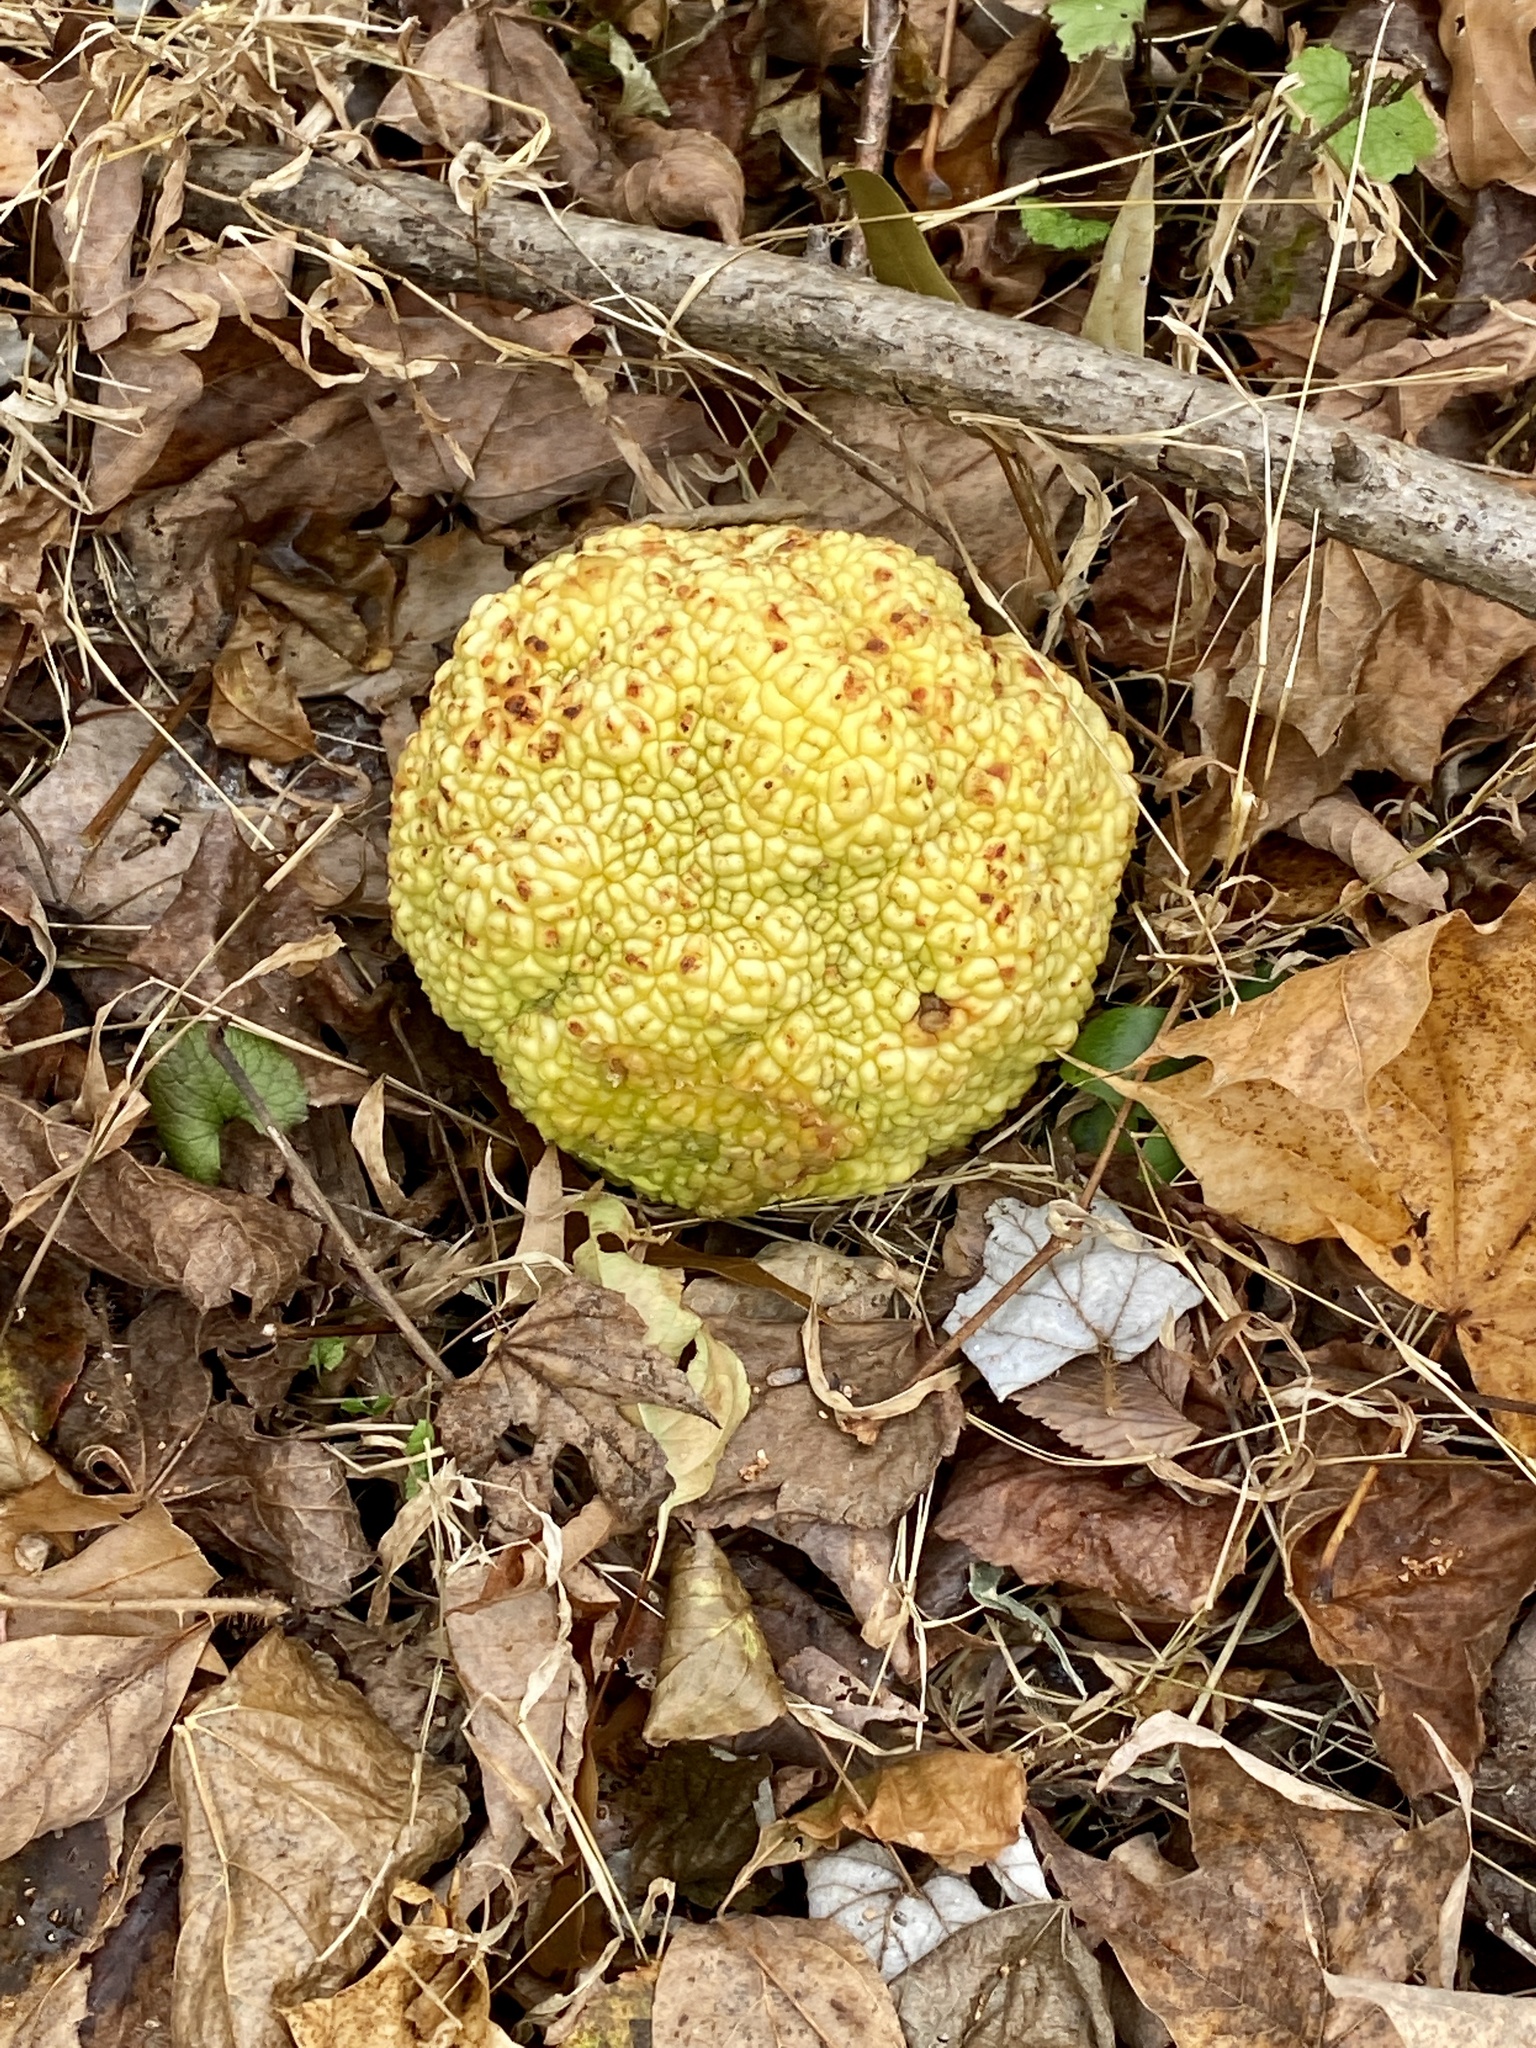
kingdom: Plantae
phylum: Tracheophyta
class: Magnoliopsida
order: Rosales
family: Moraceae
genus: Maclura
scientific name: Maclura pomifera
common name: Osage-orange
